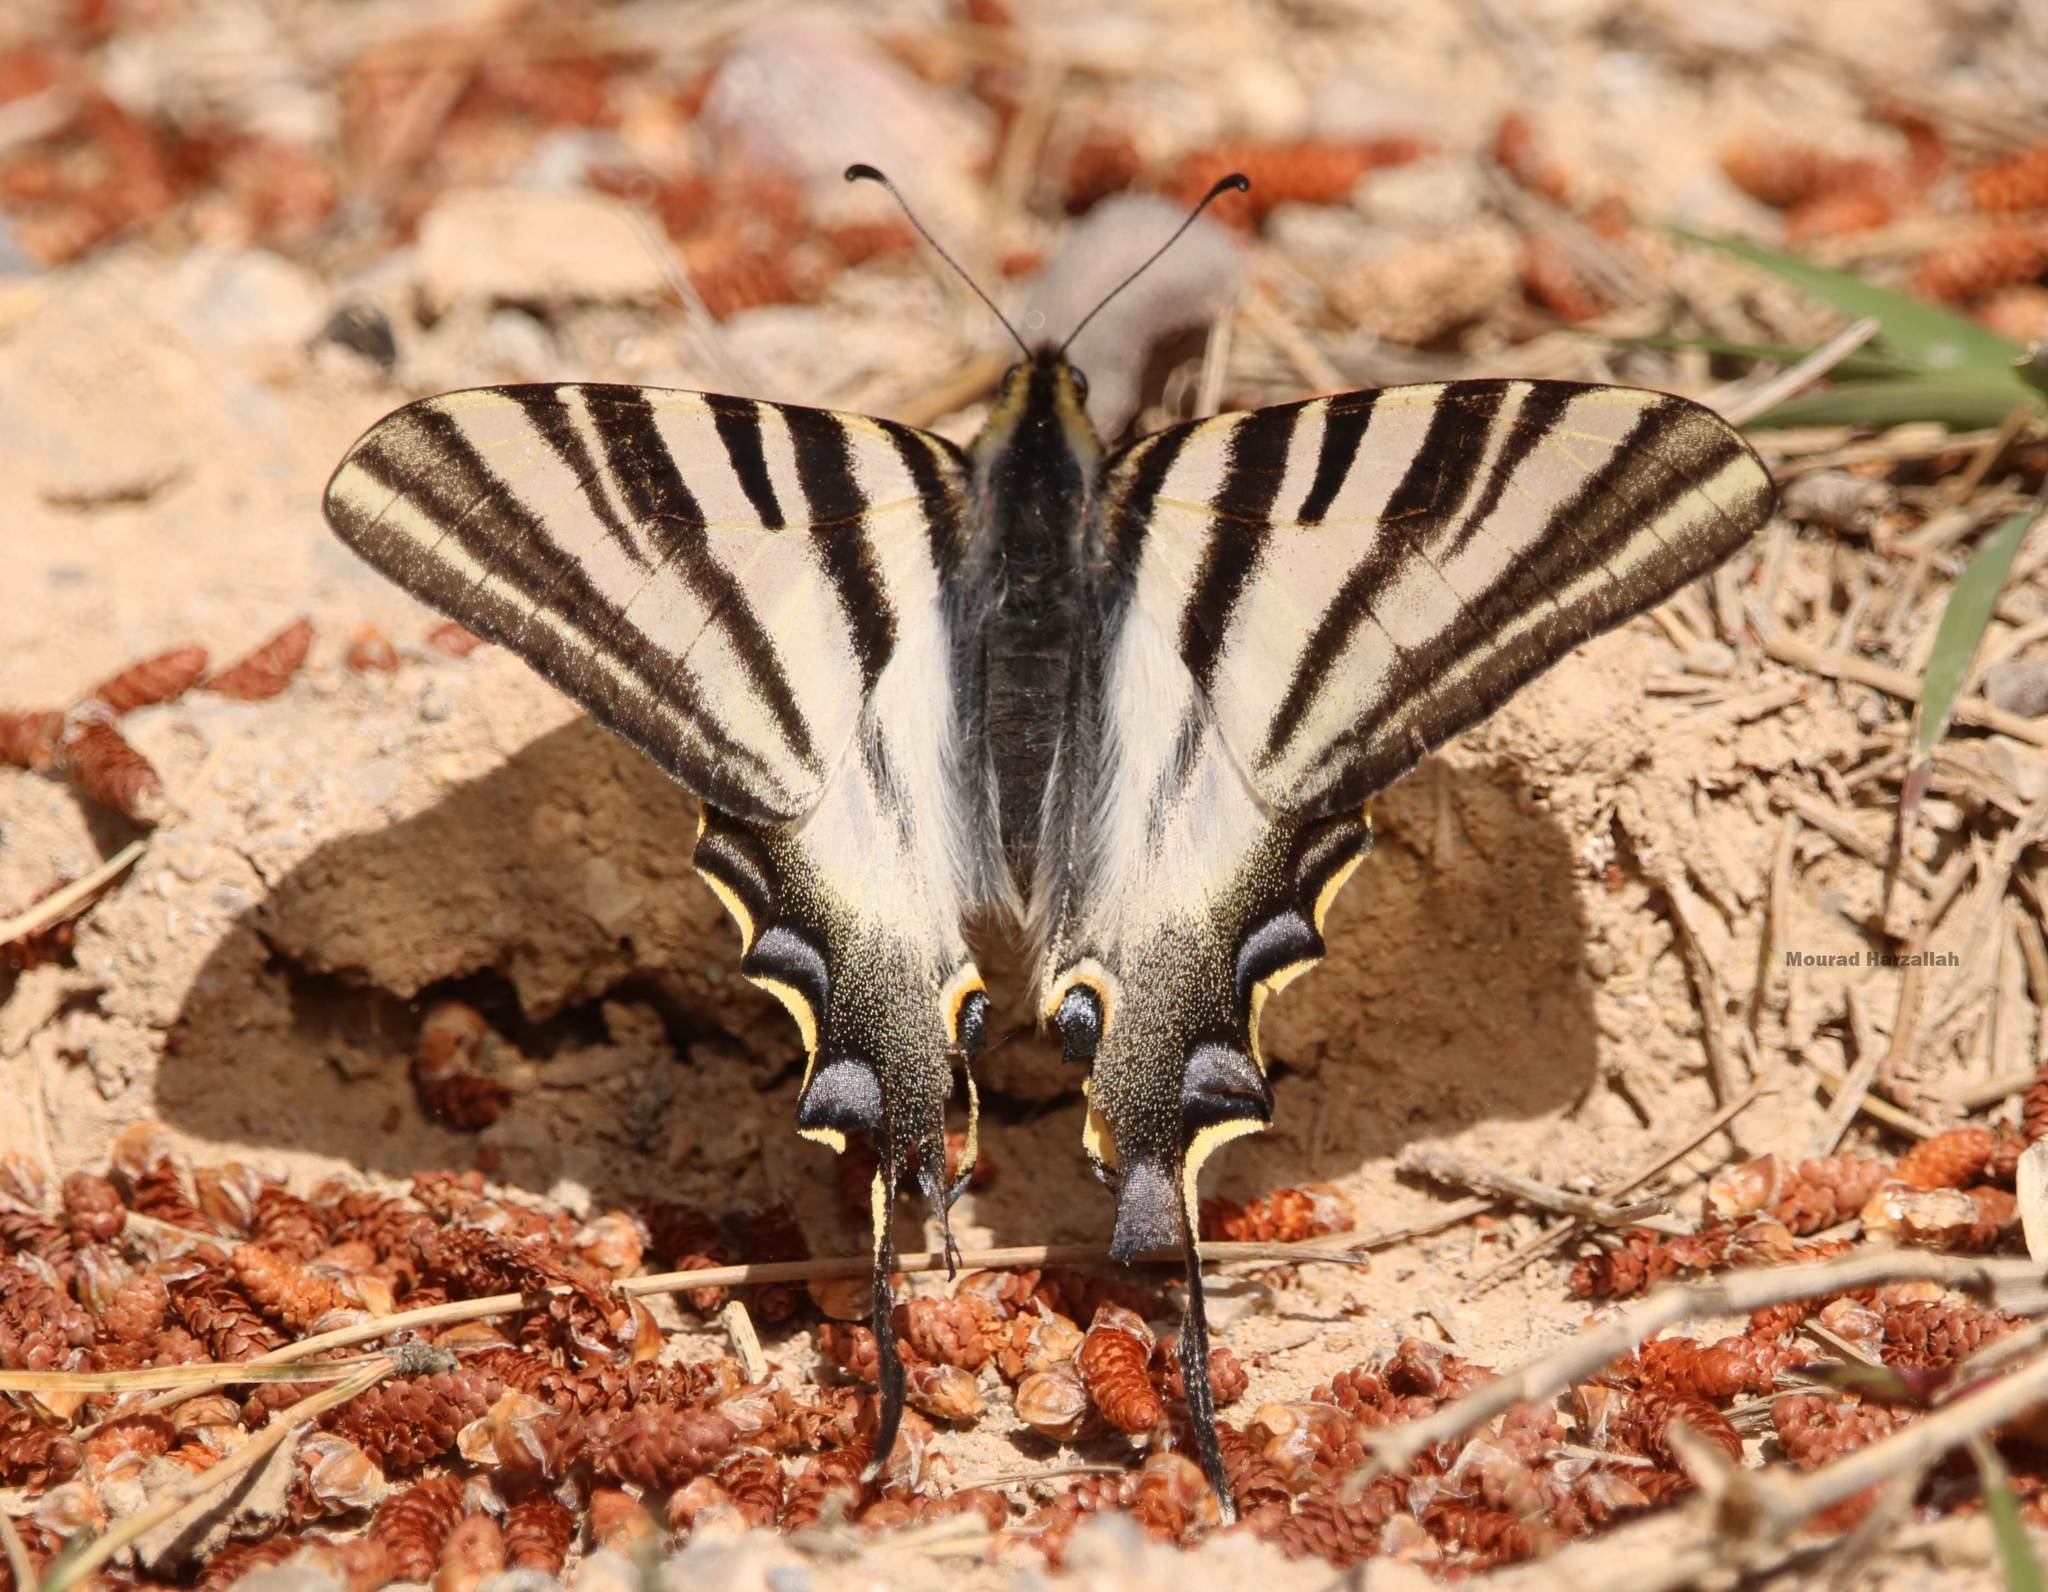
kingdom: Animalia
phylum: Arthropoda
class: Insecta
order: Lepidoptera
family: Papilionidae
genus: Iphiclides
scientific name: Iphiclides feisthamelii
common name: Iberian scarce swallowtail
